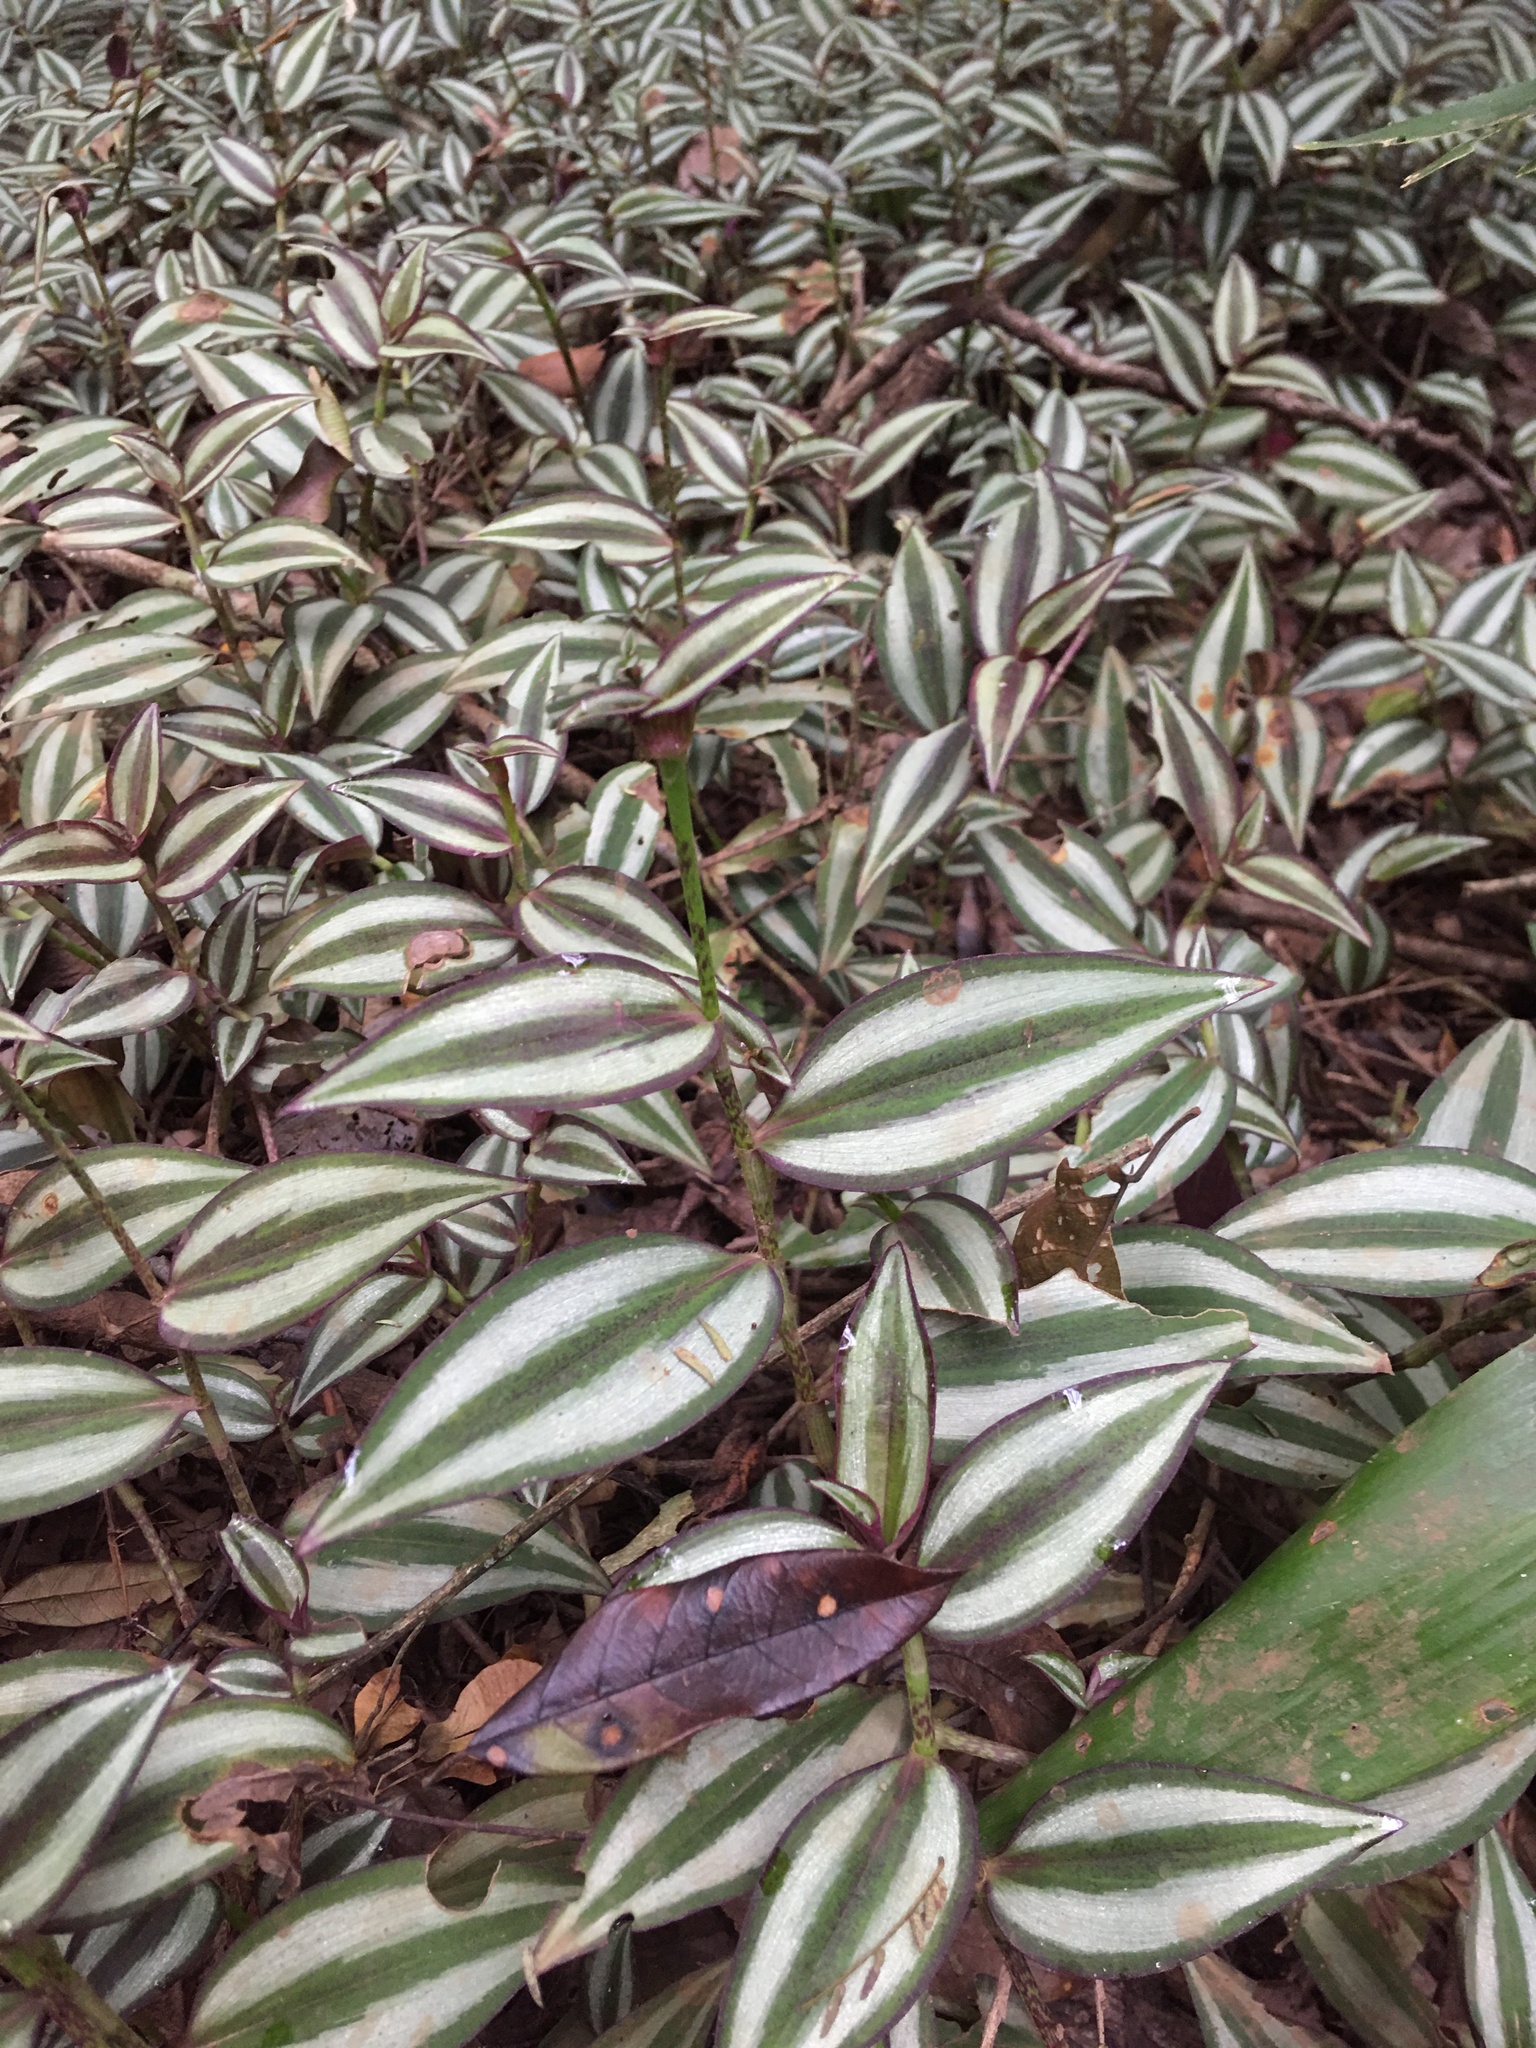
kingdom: Plantae
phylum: Tracheophyta
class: Liliopsida
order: Commelinales
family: Commelinaceae
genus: Tradescantia
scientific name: Tradescantia zebrina
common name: Inchplant
